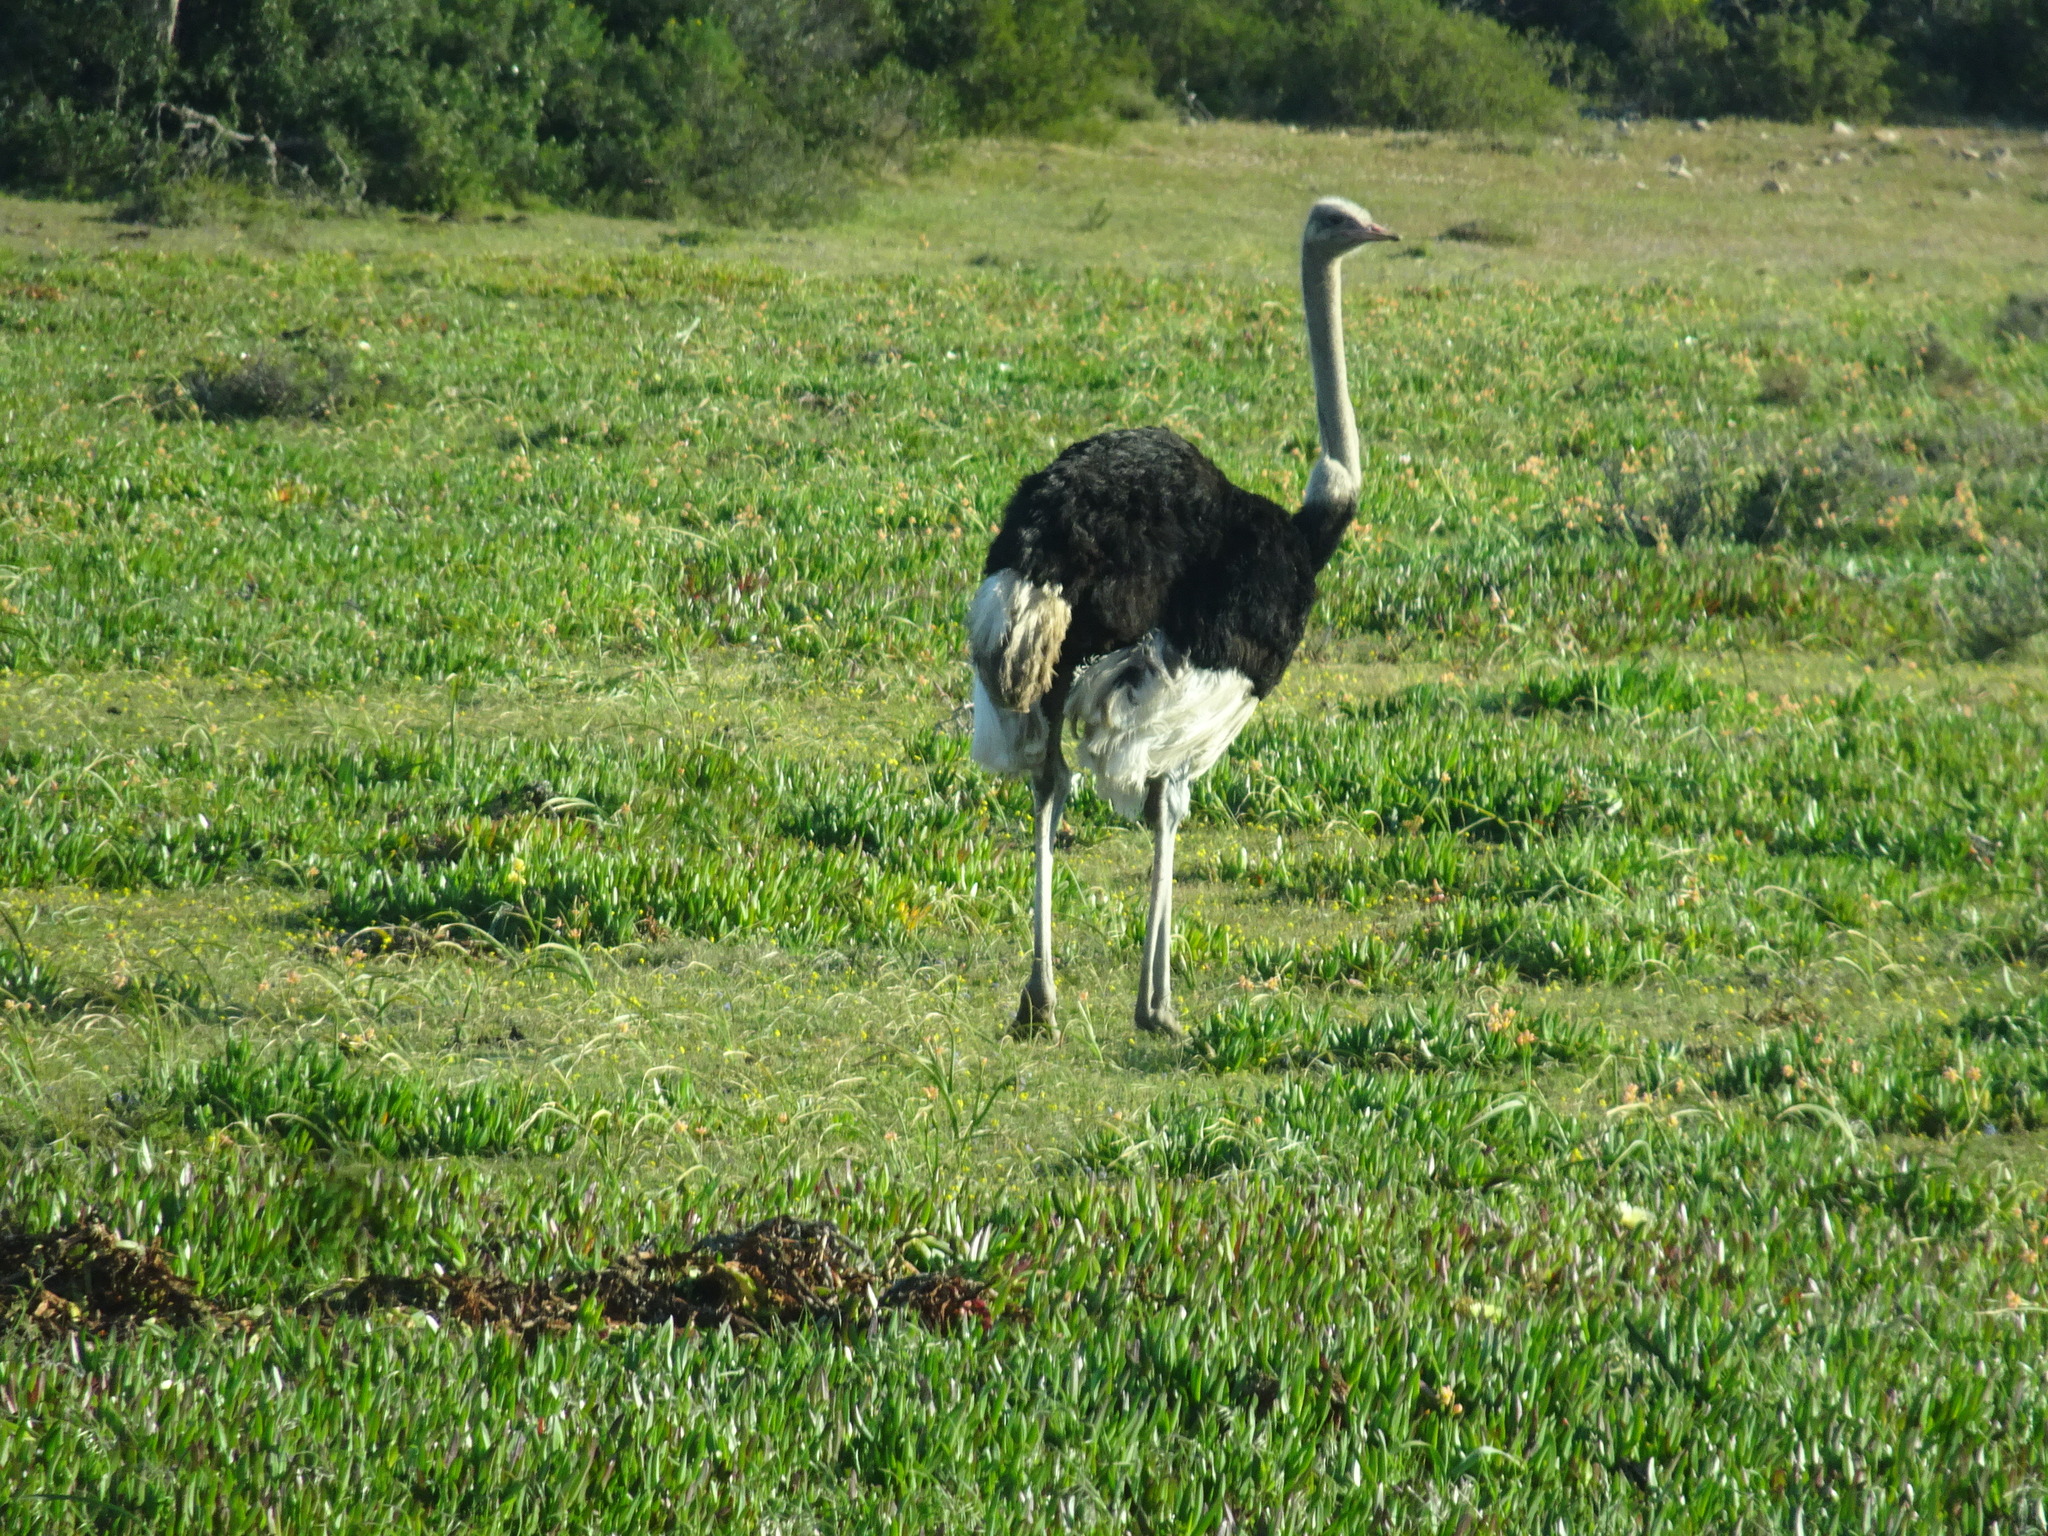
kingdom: Animalia
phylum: Chordata
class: Aves
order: Struthioniformes
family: Struthionidae
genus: Struthio
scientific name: Struthio camelus
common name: Common ostrich
